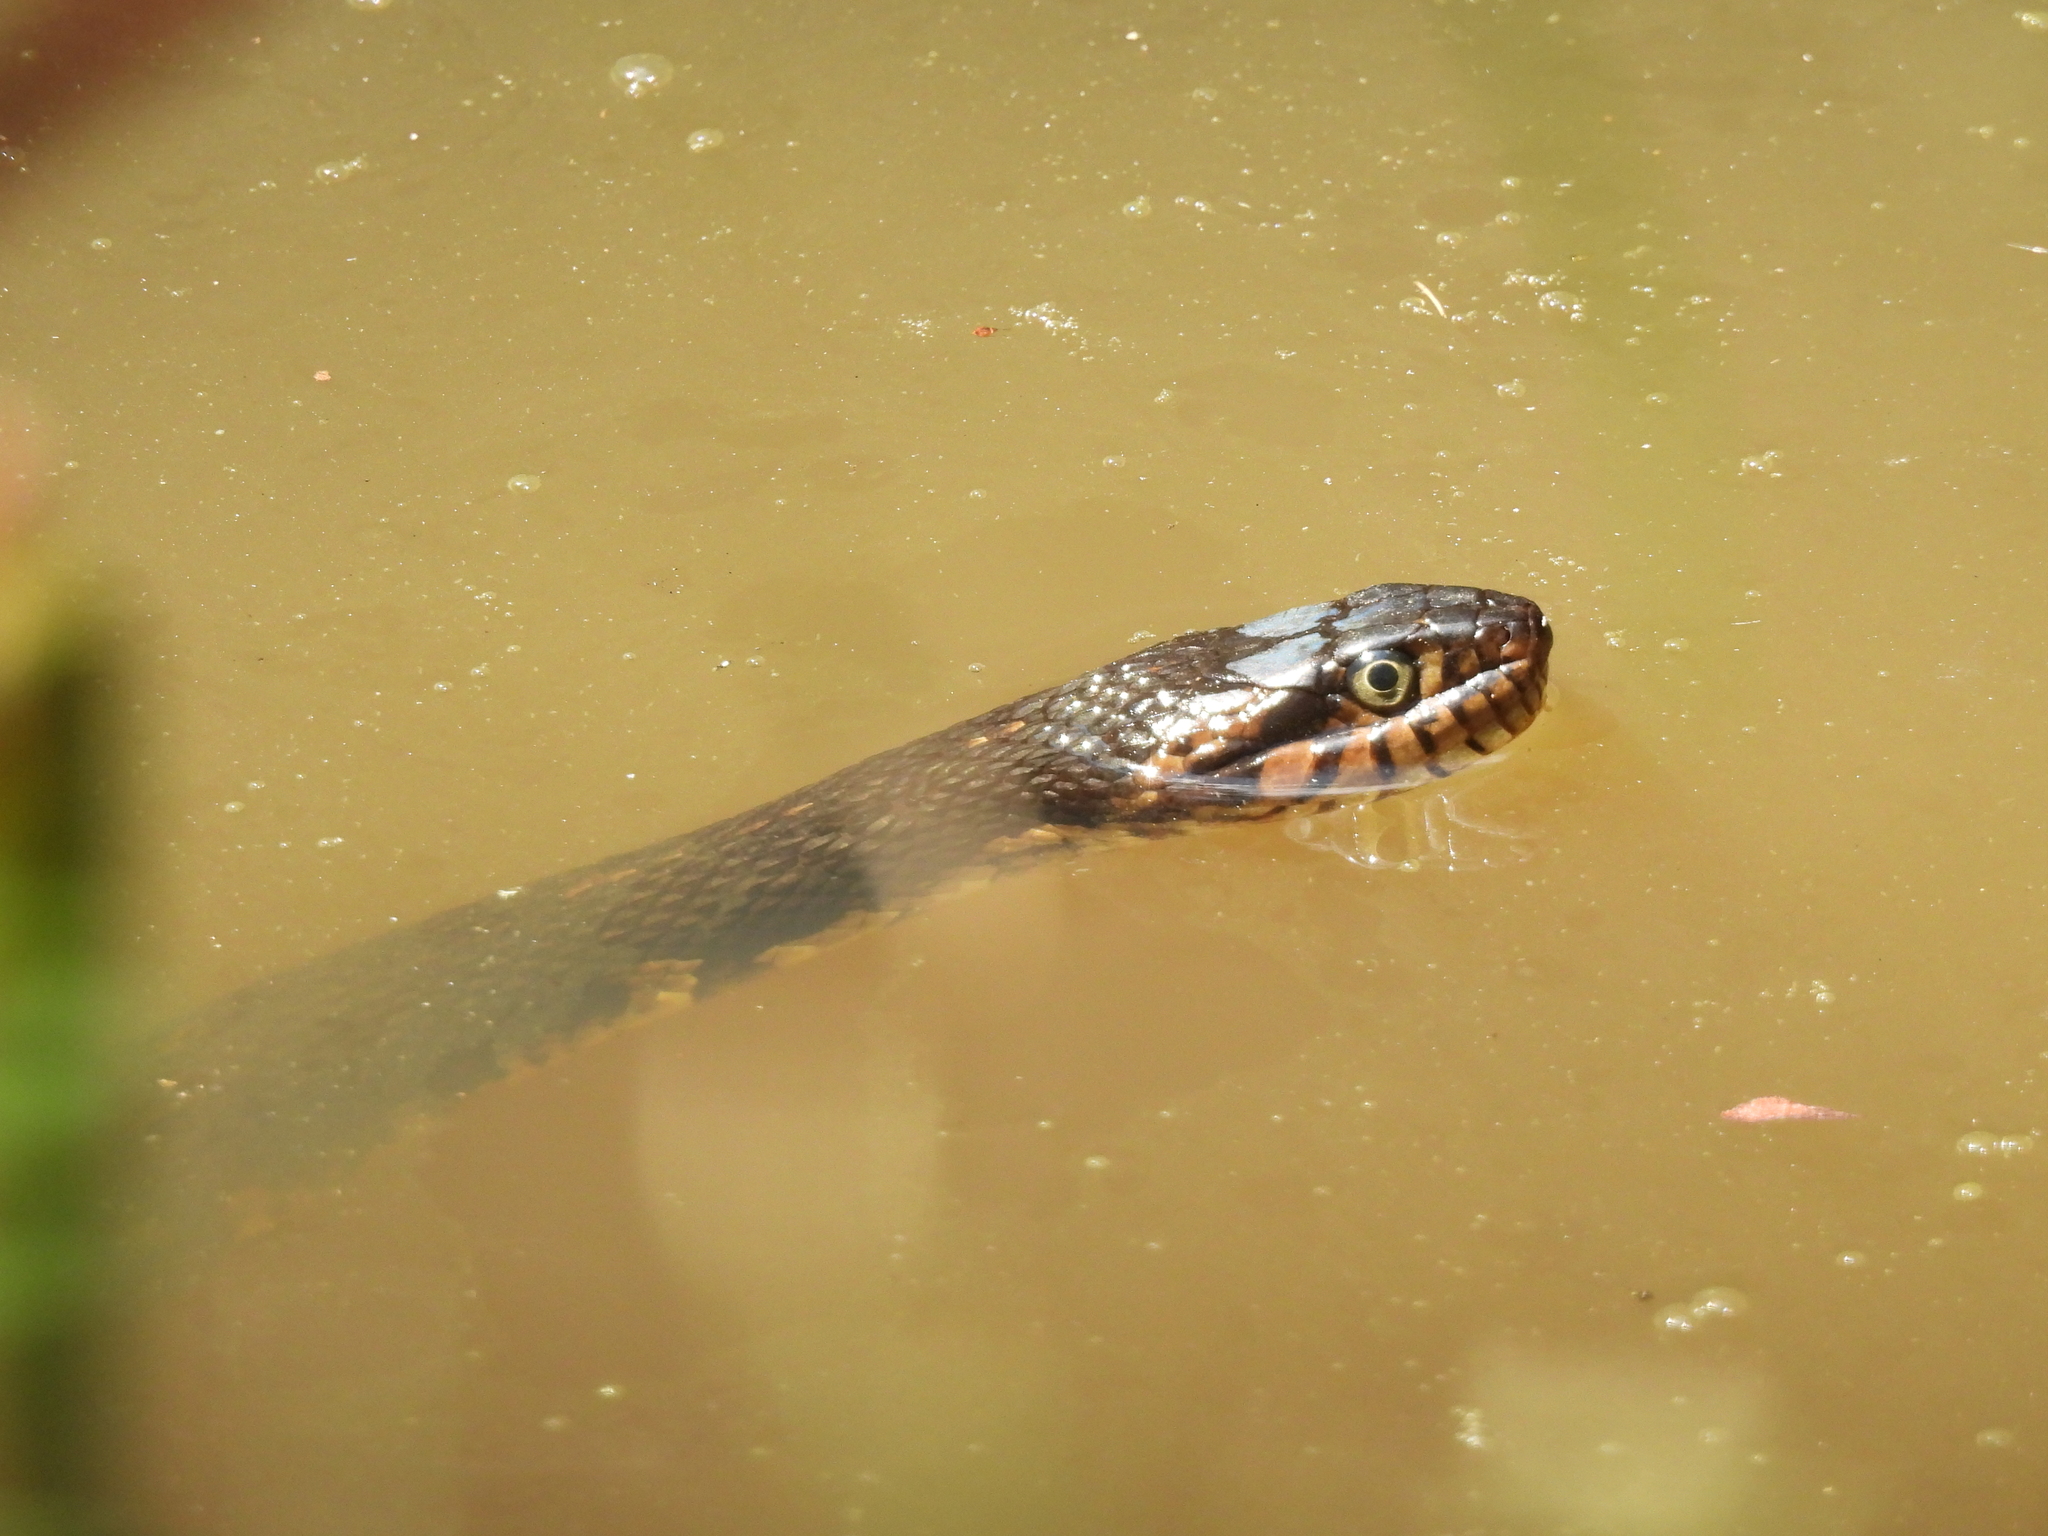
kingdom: Animalia
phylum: Chordata
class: Squamata
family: Colubridae
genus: Nerodia
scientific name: Nerodia fasciata
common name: Southern water snake
